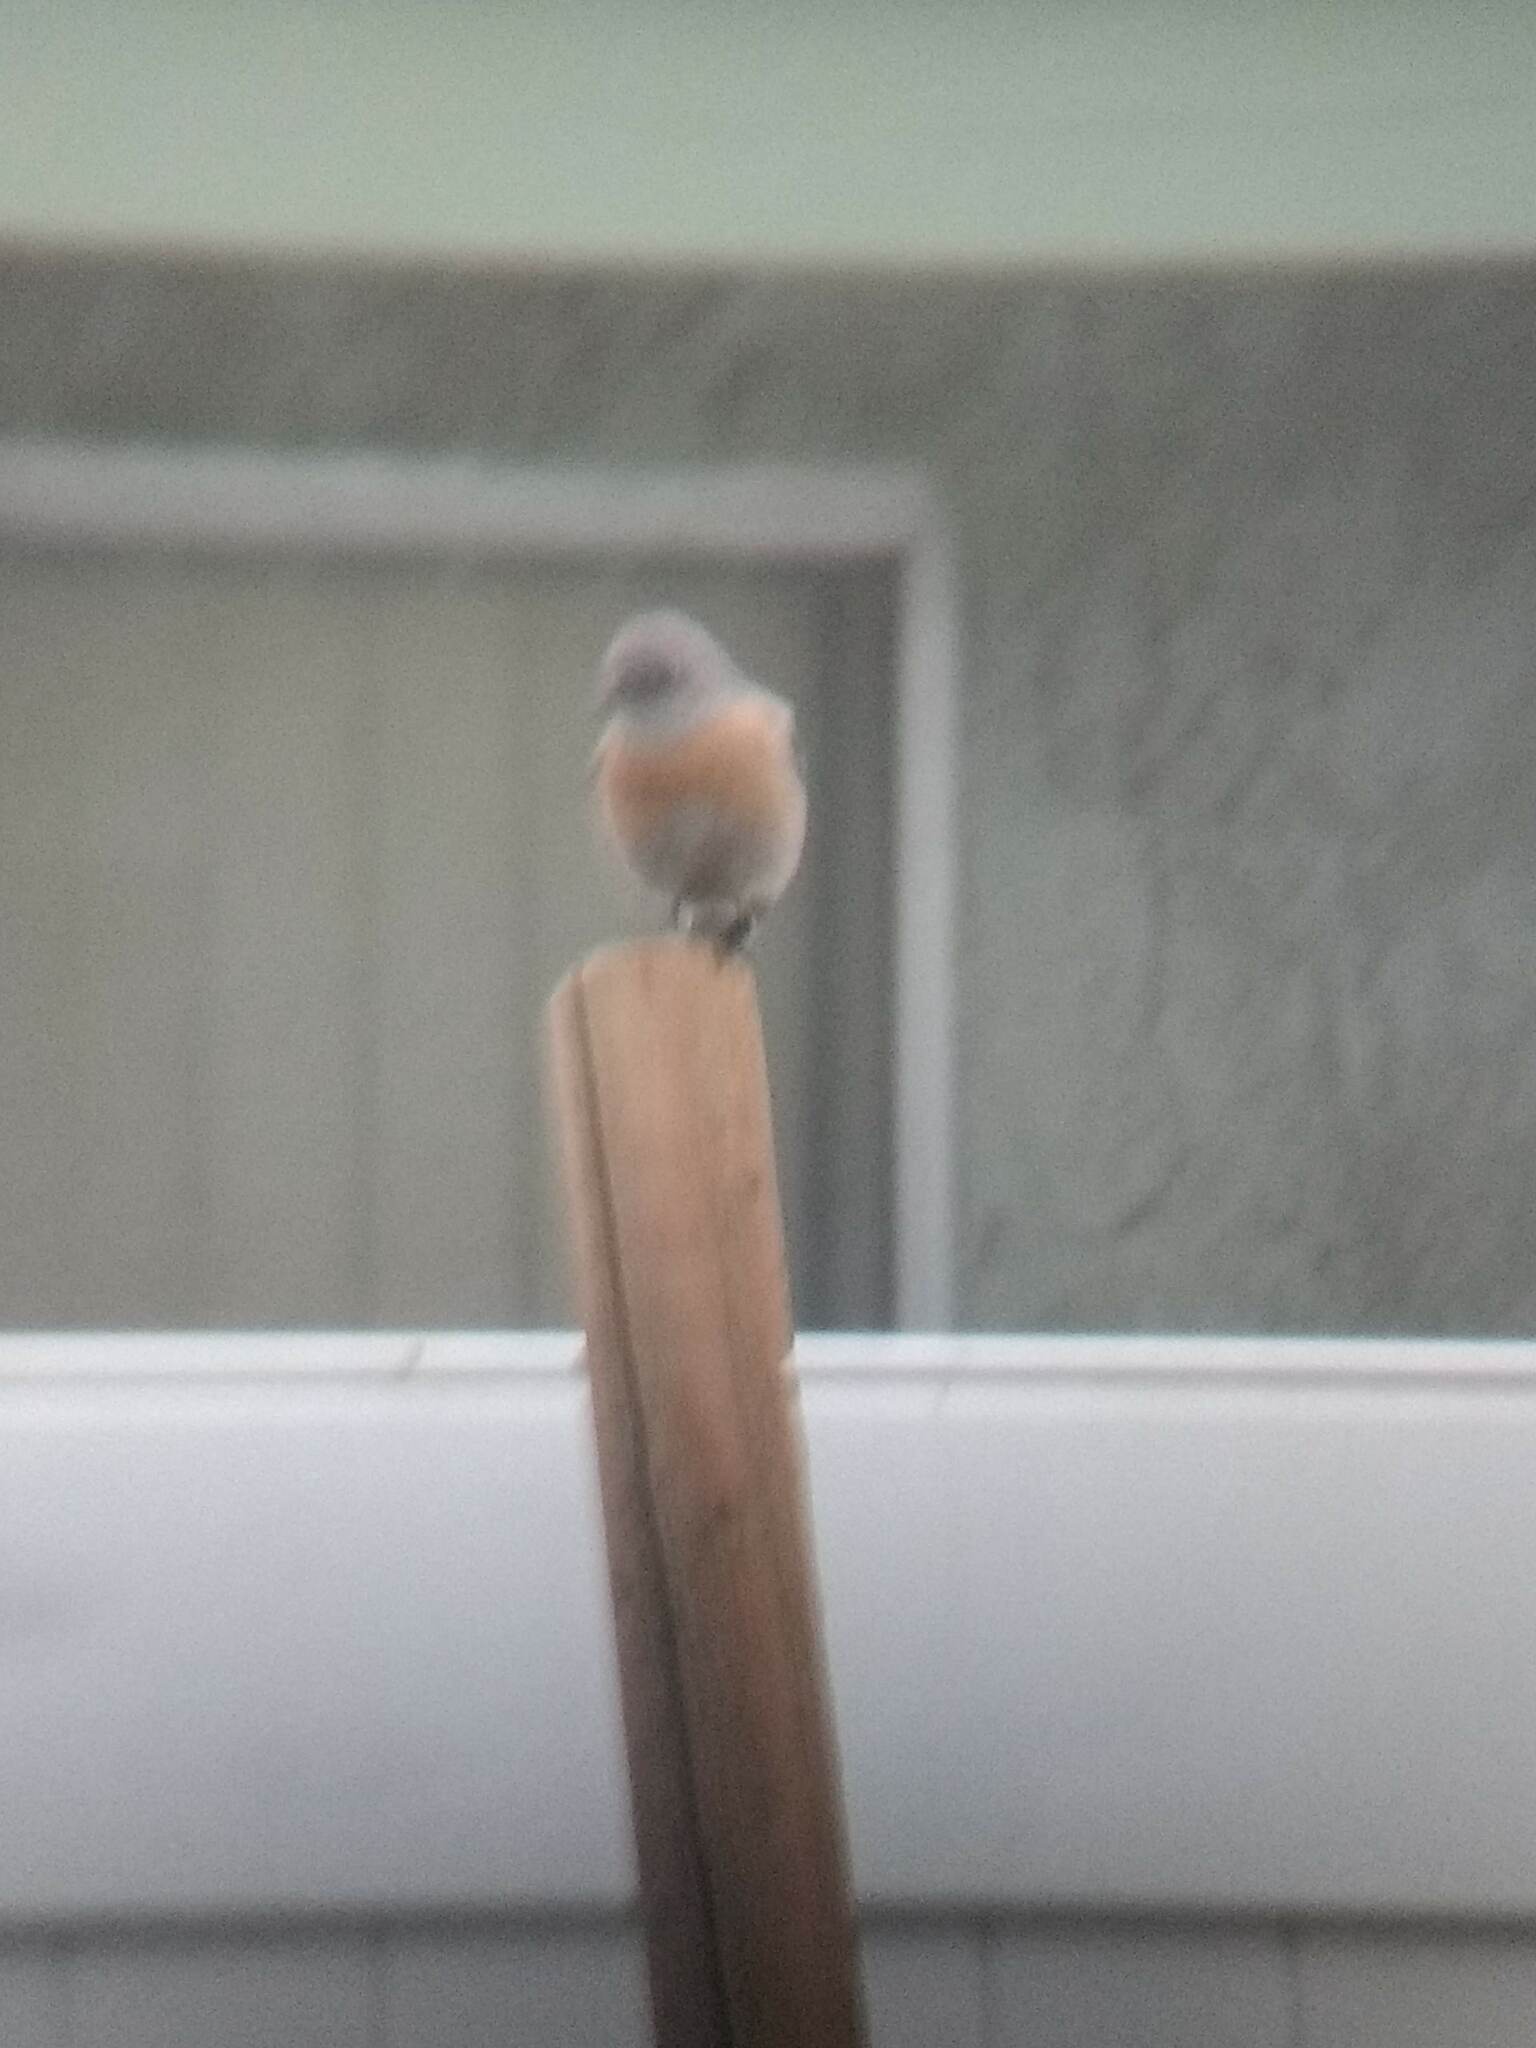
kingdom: Animalia
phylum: Chordata
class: Aves
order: Passeriformes
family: Turdidae
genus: Sialia
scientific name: Sialia mexicana
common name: Western bluebird
